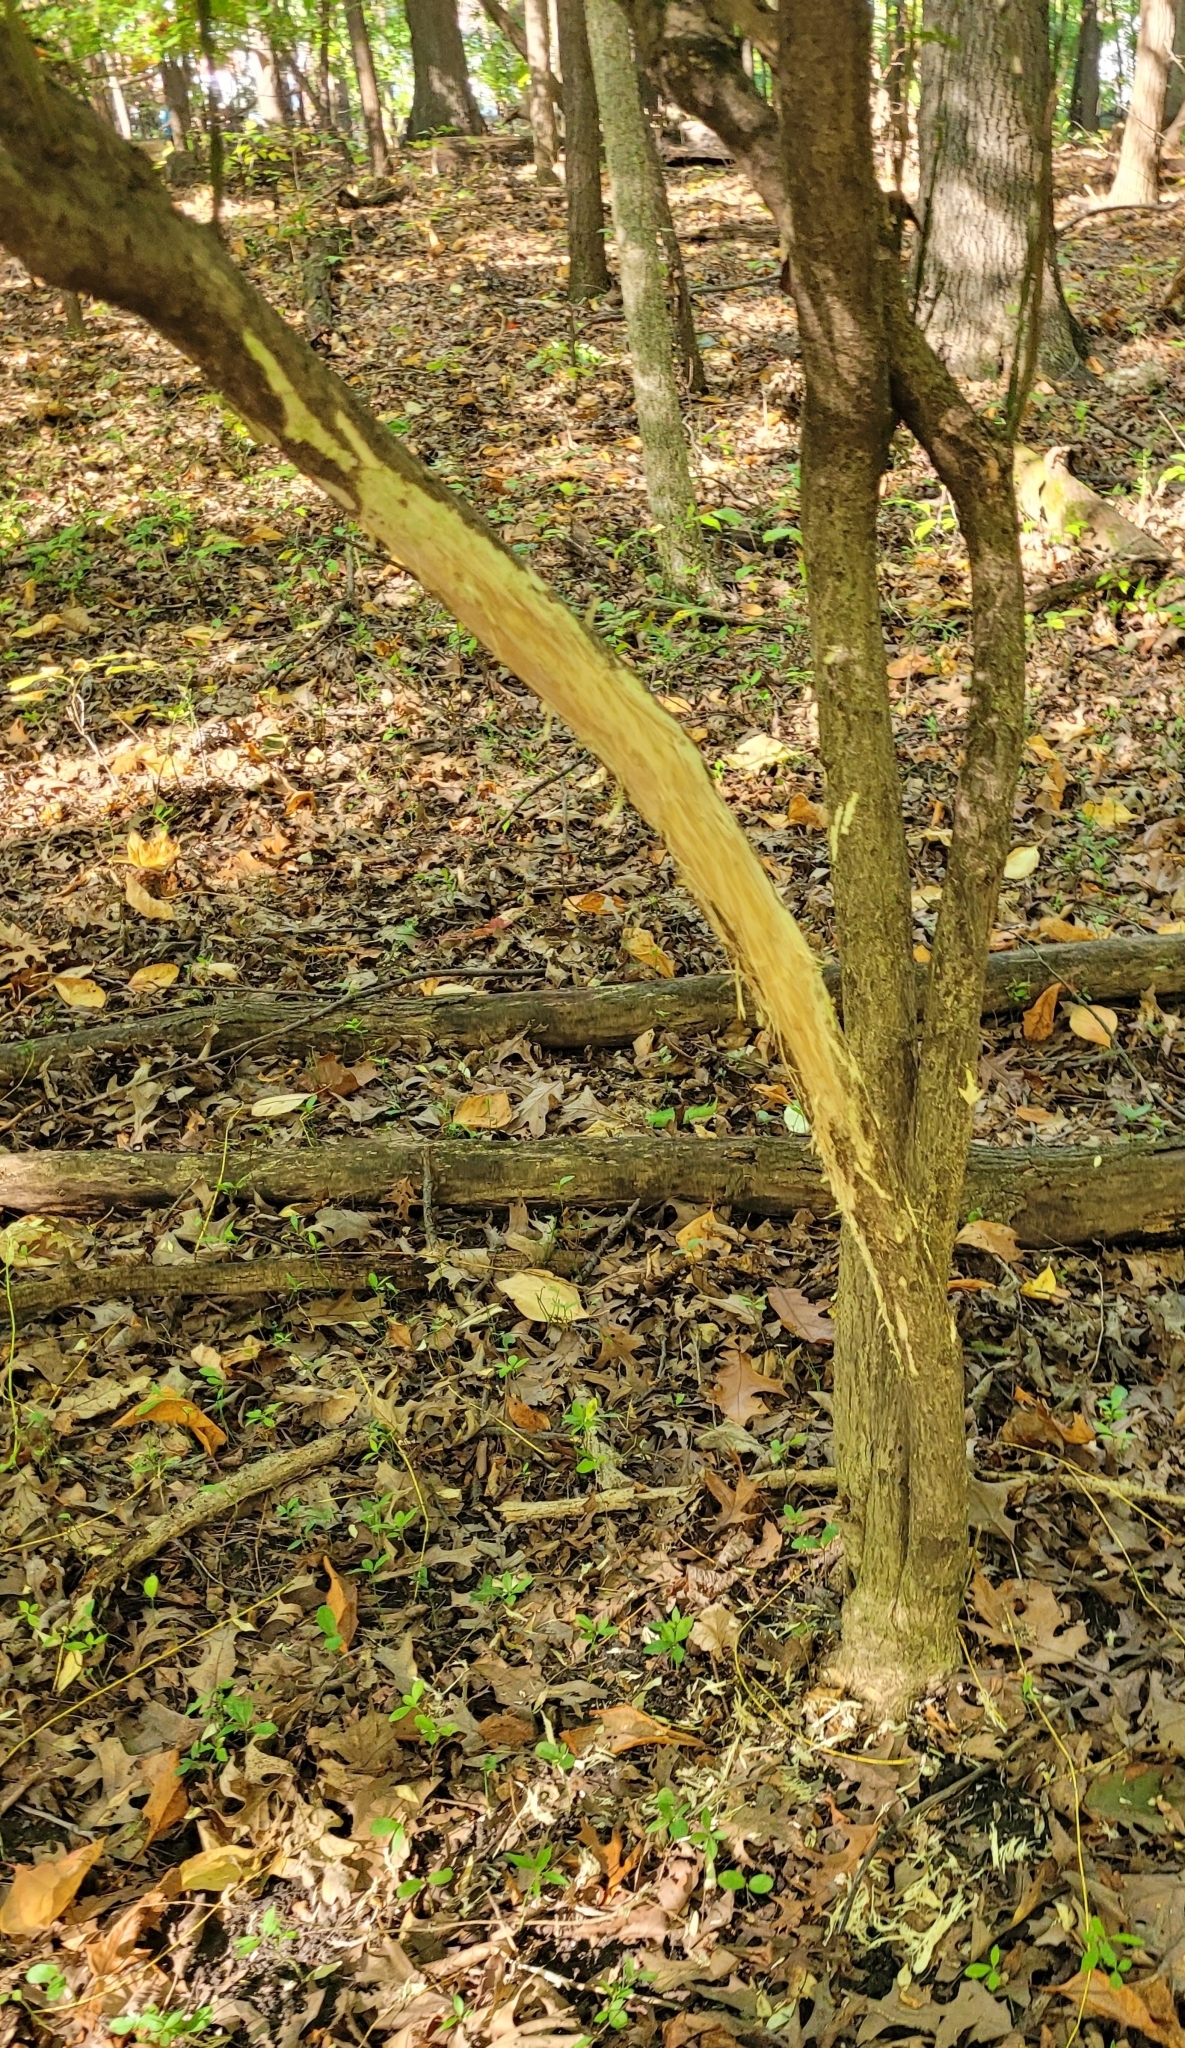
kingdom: Animalia
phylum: Chordata
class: Mammalia
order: Artiodactyla
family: Cervidae
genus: Odocoileus
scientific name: Odocoileus virginianus
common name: White-tailed deer
